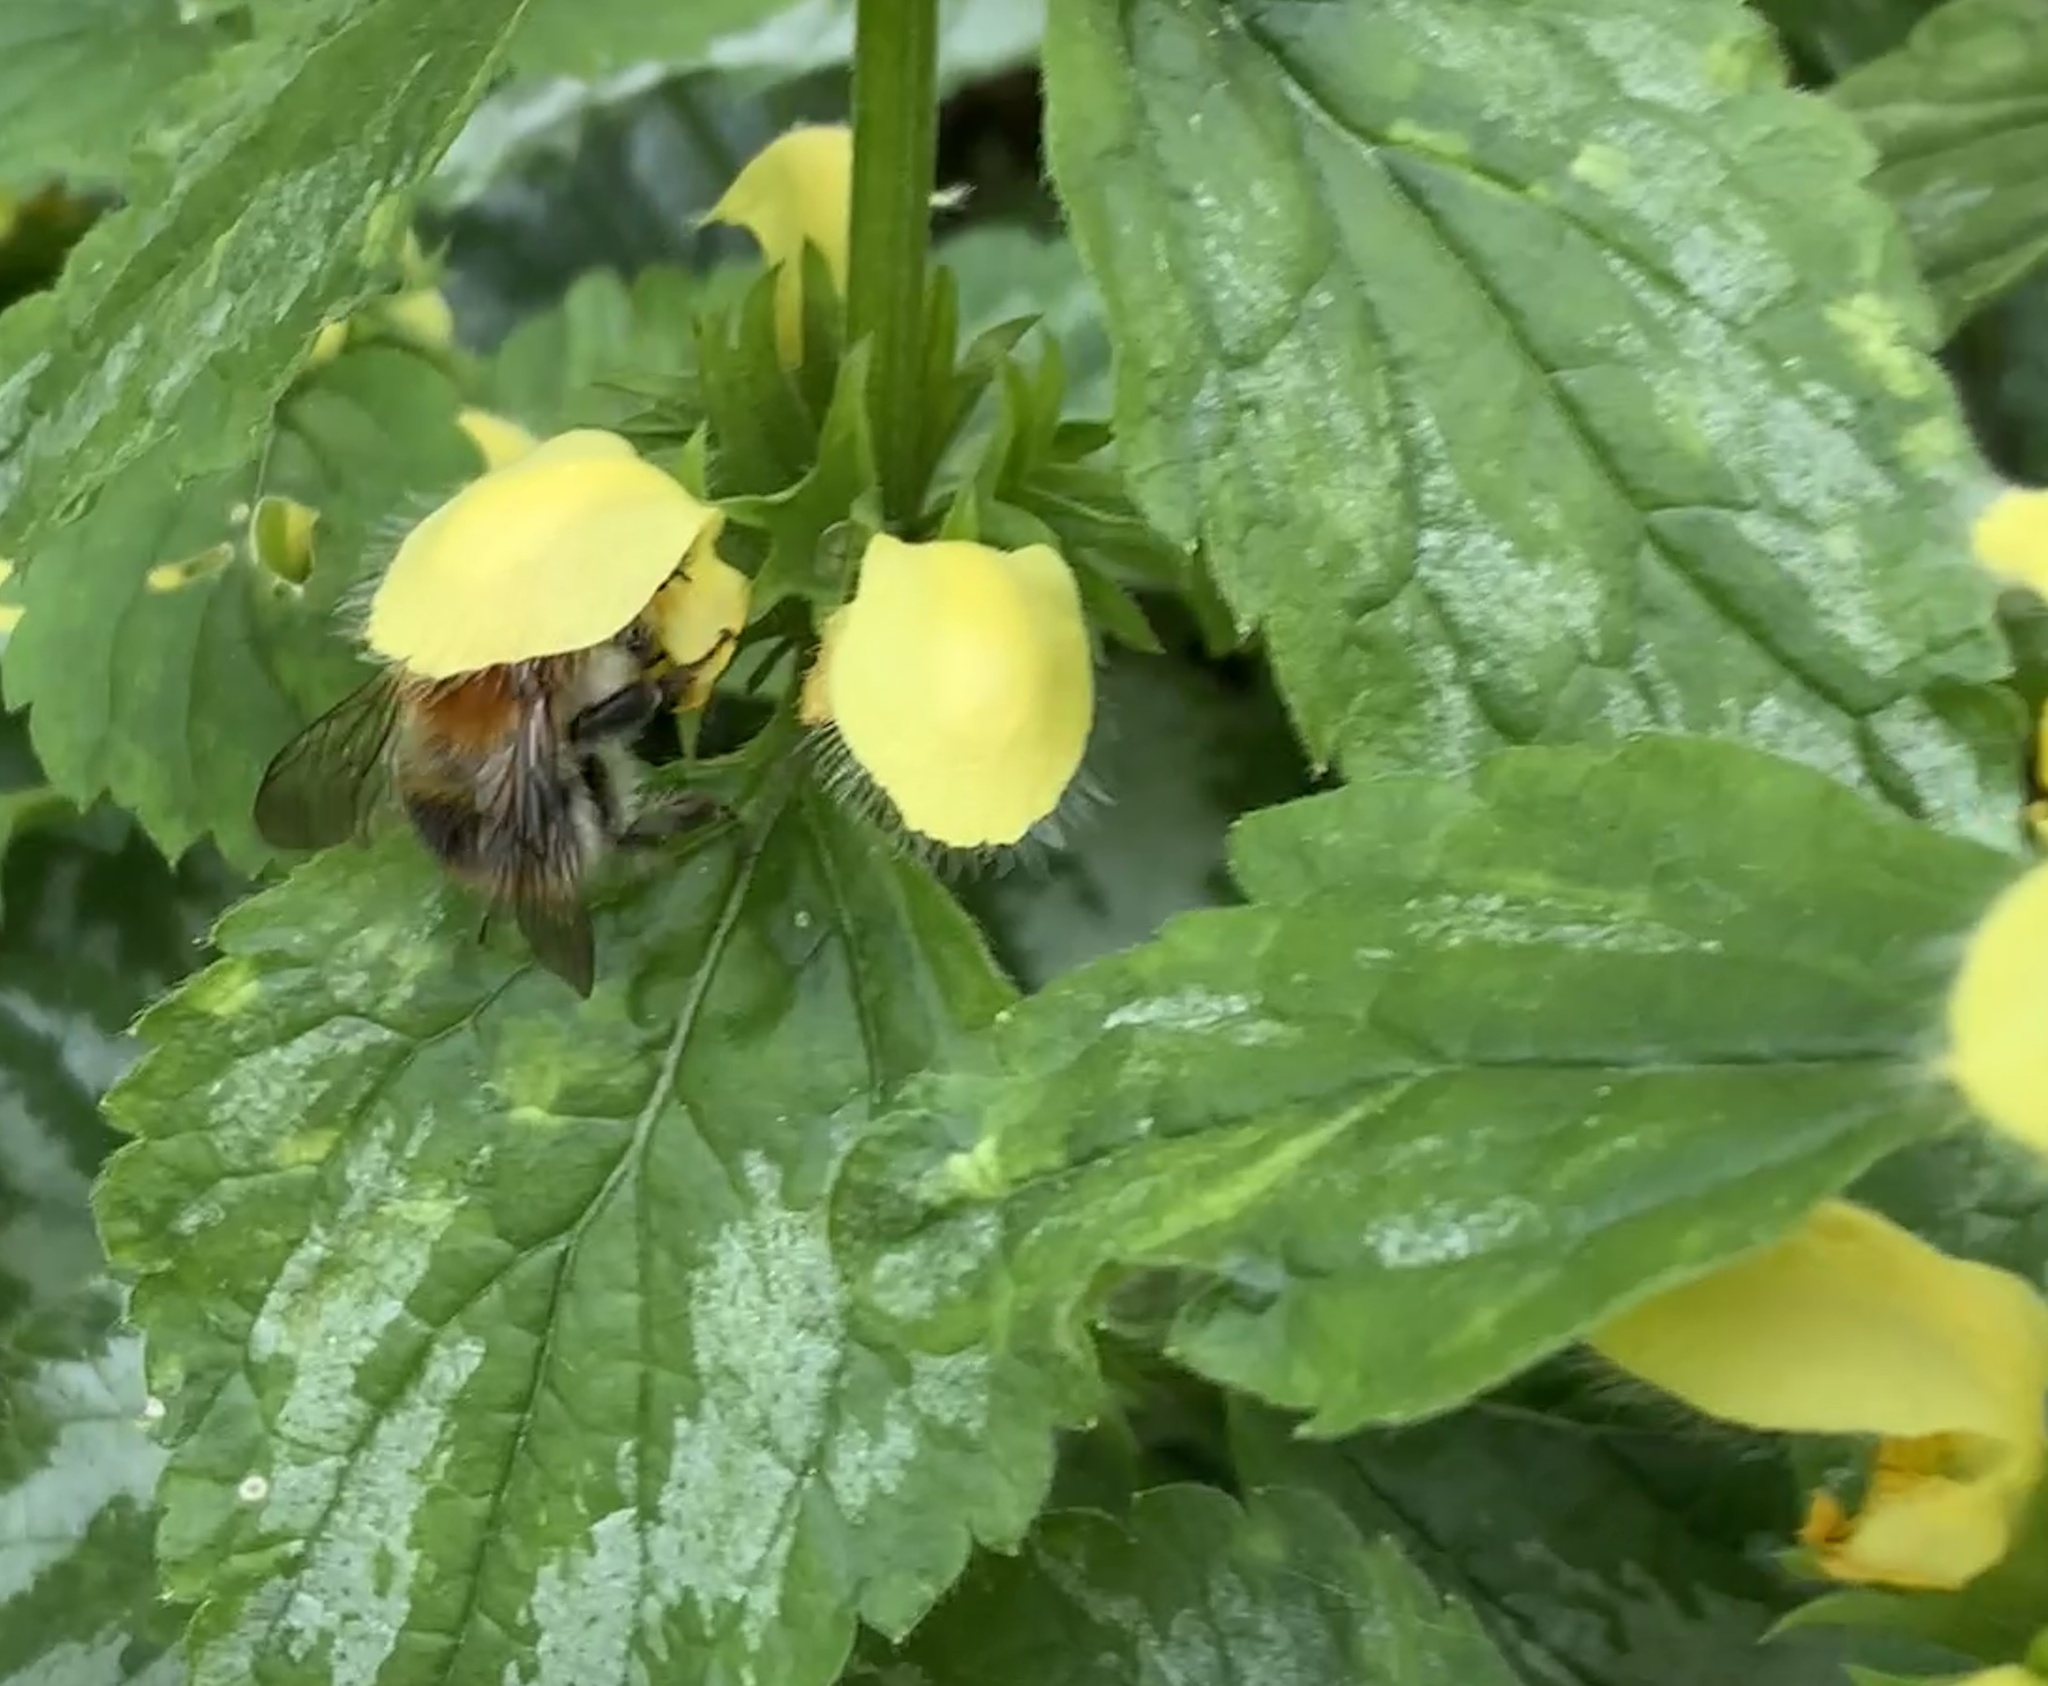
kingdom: Plantae
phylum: Tracheophyta
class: Magnoliopsida
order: Lamiales
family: Lamiaceae
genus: Lamium
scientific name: Lamium galeobdolon
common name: Yellow archangel
